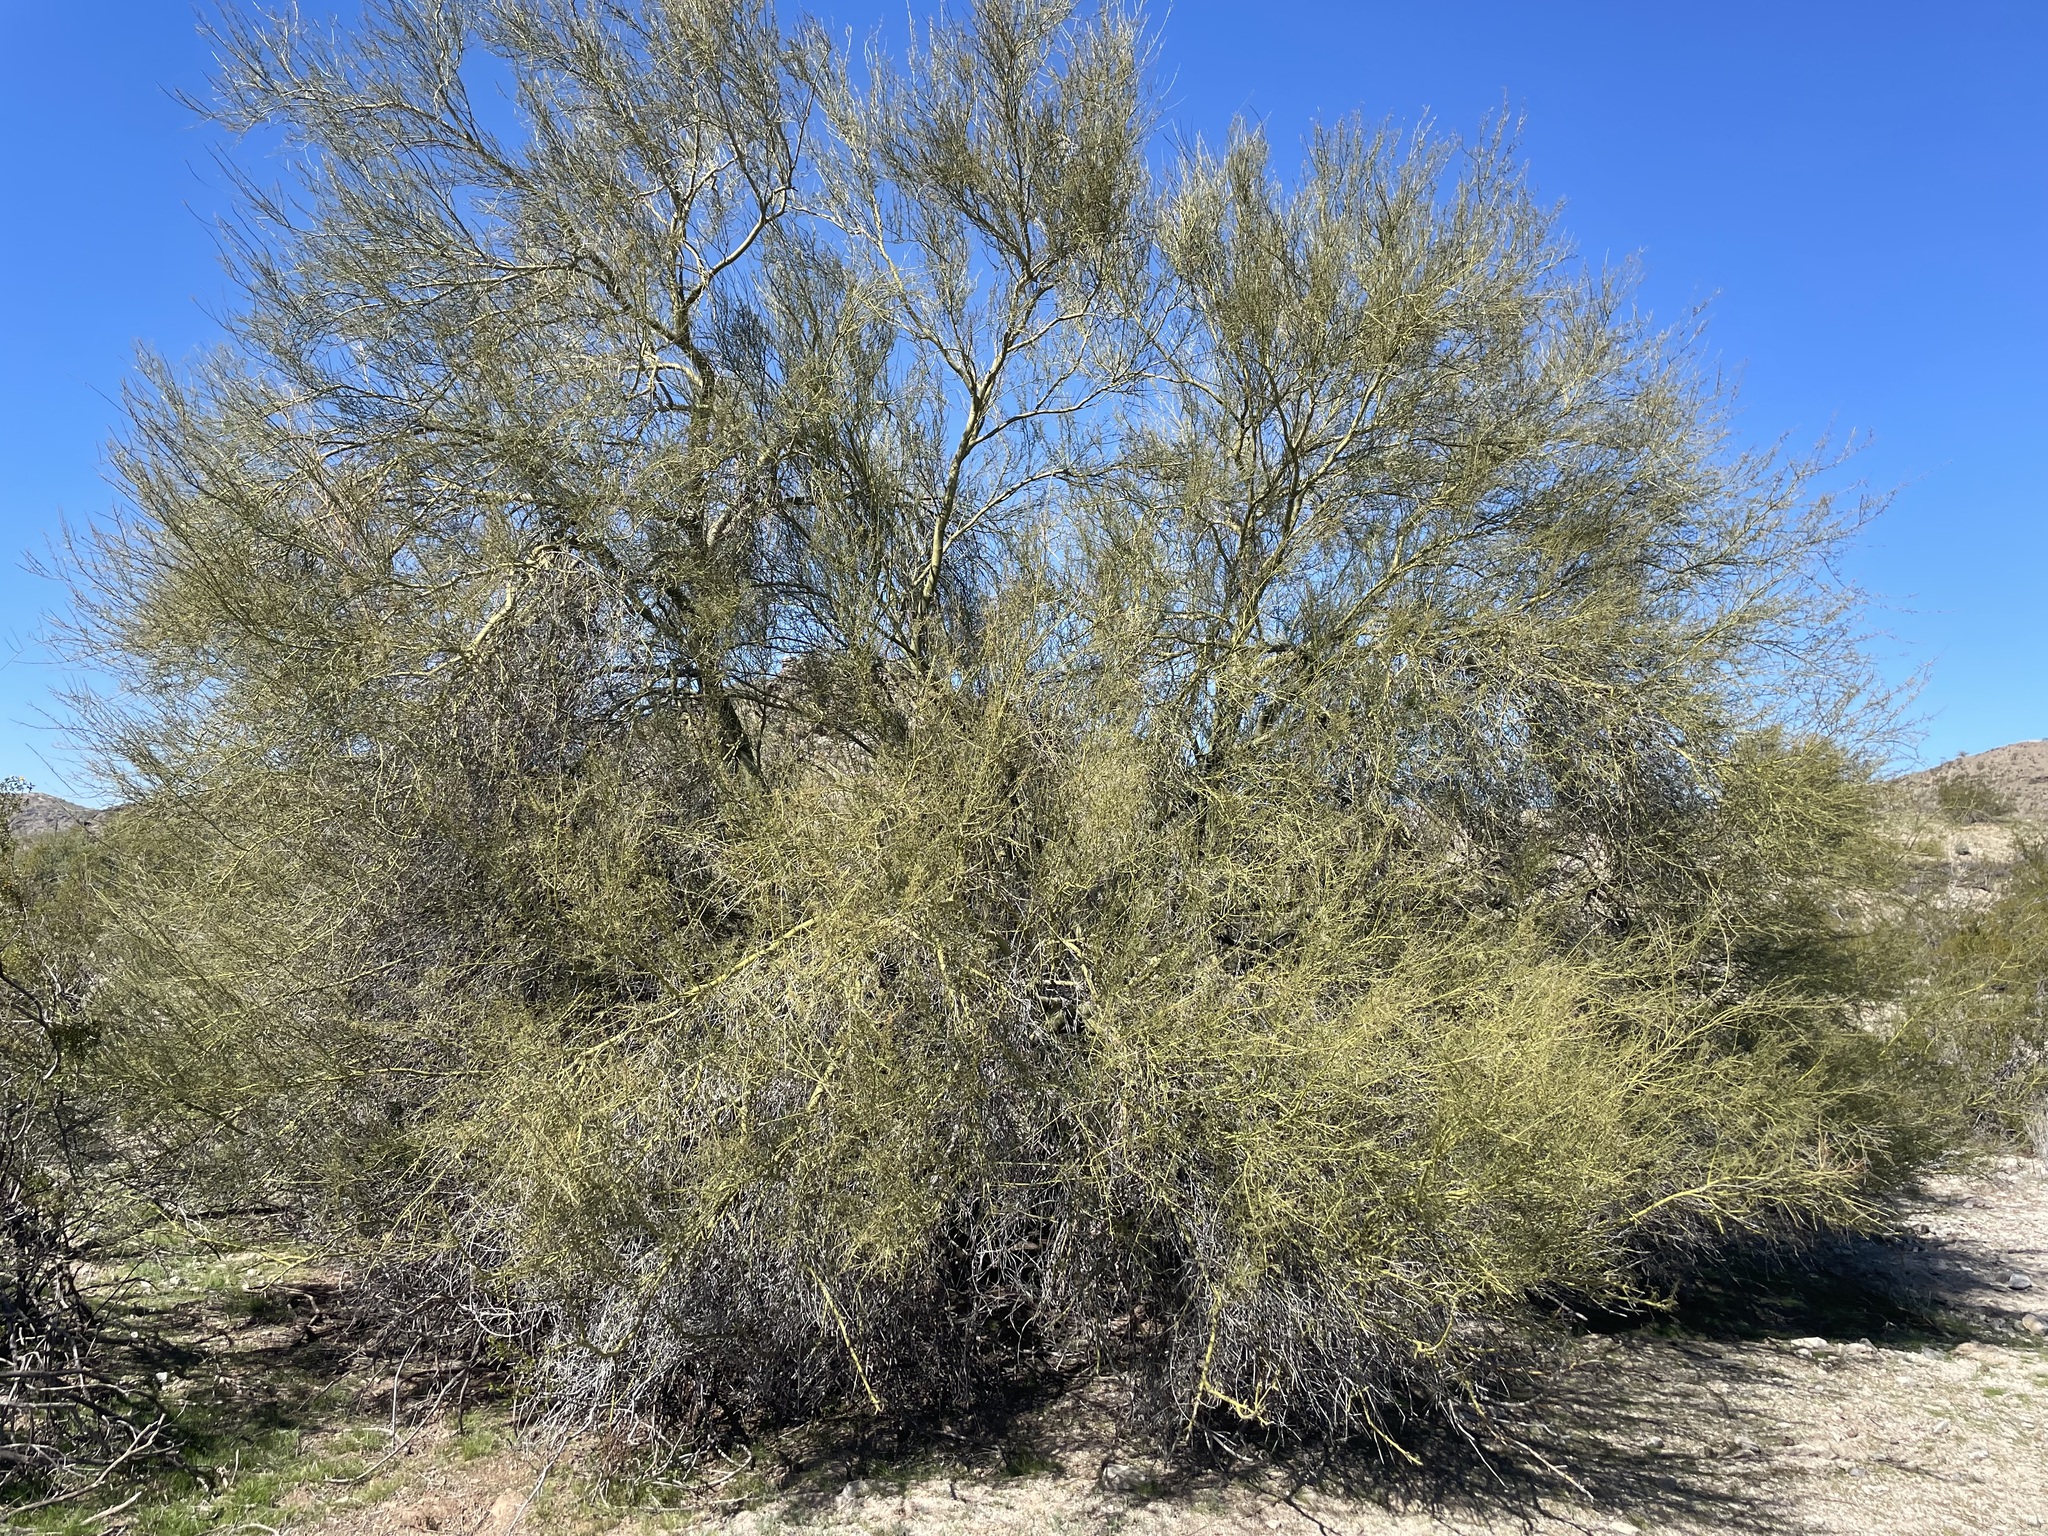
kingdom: Plantae
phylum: Tracheophyta
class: Magnoliopsida
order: Fabales
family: Fabaceae
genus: Parkinsonia
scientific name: Parkinsonia microphylla
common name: Yellow paloverde
